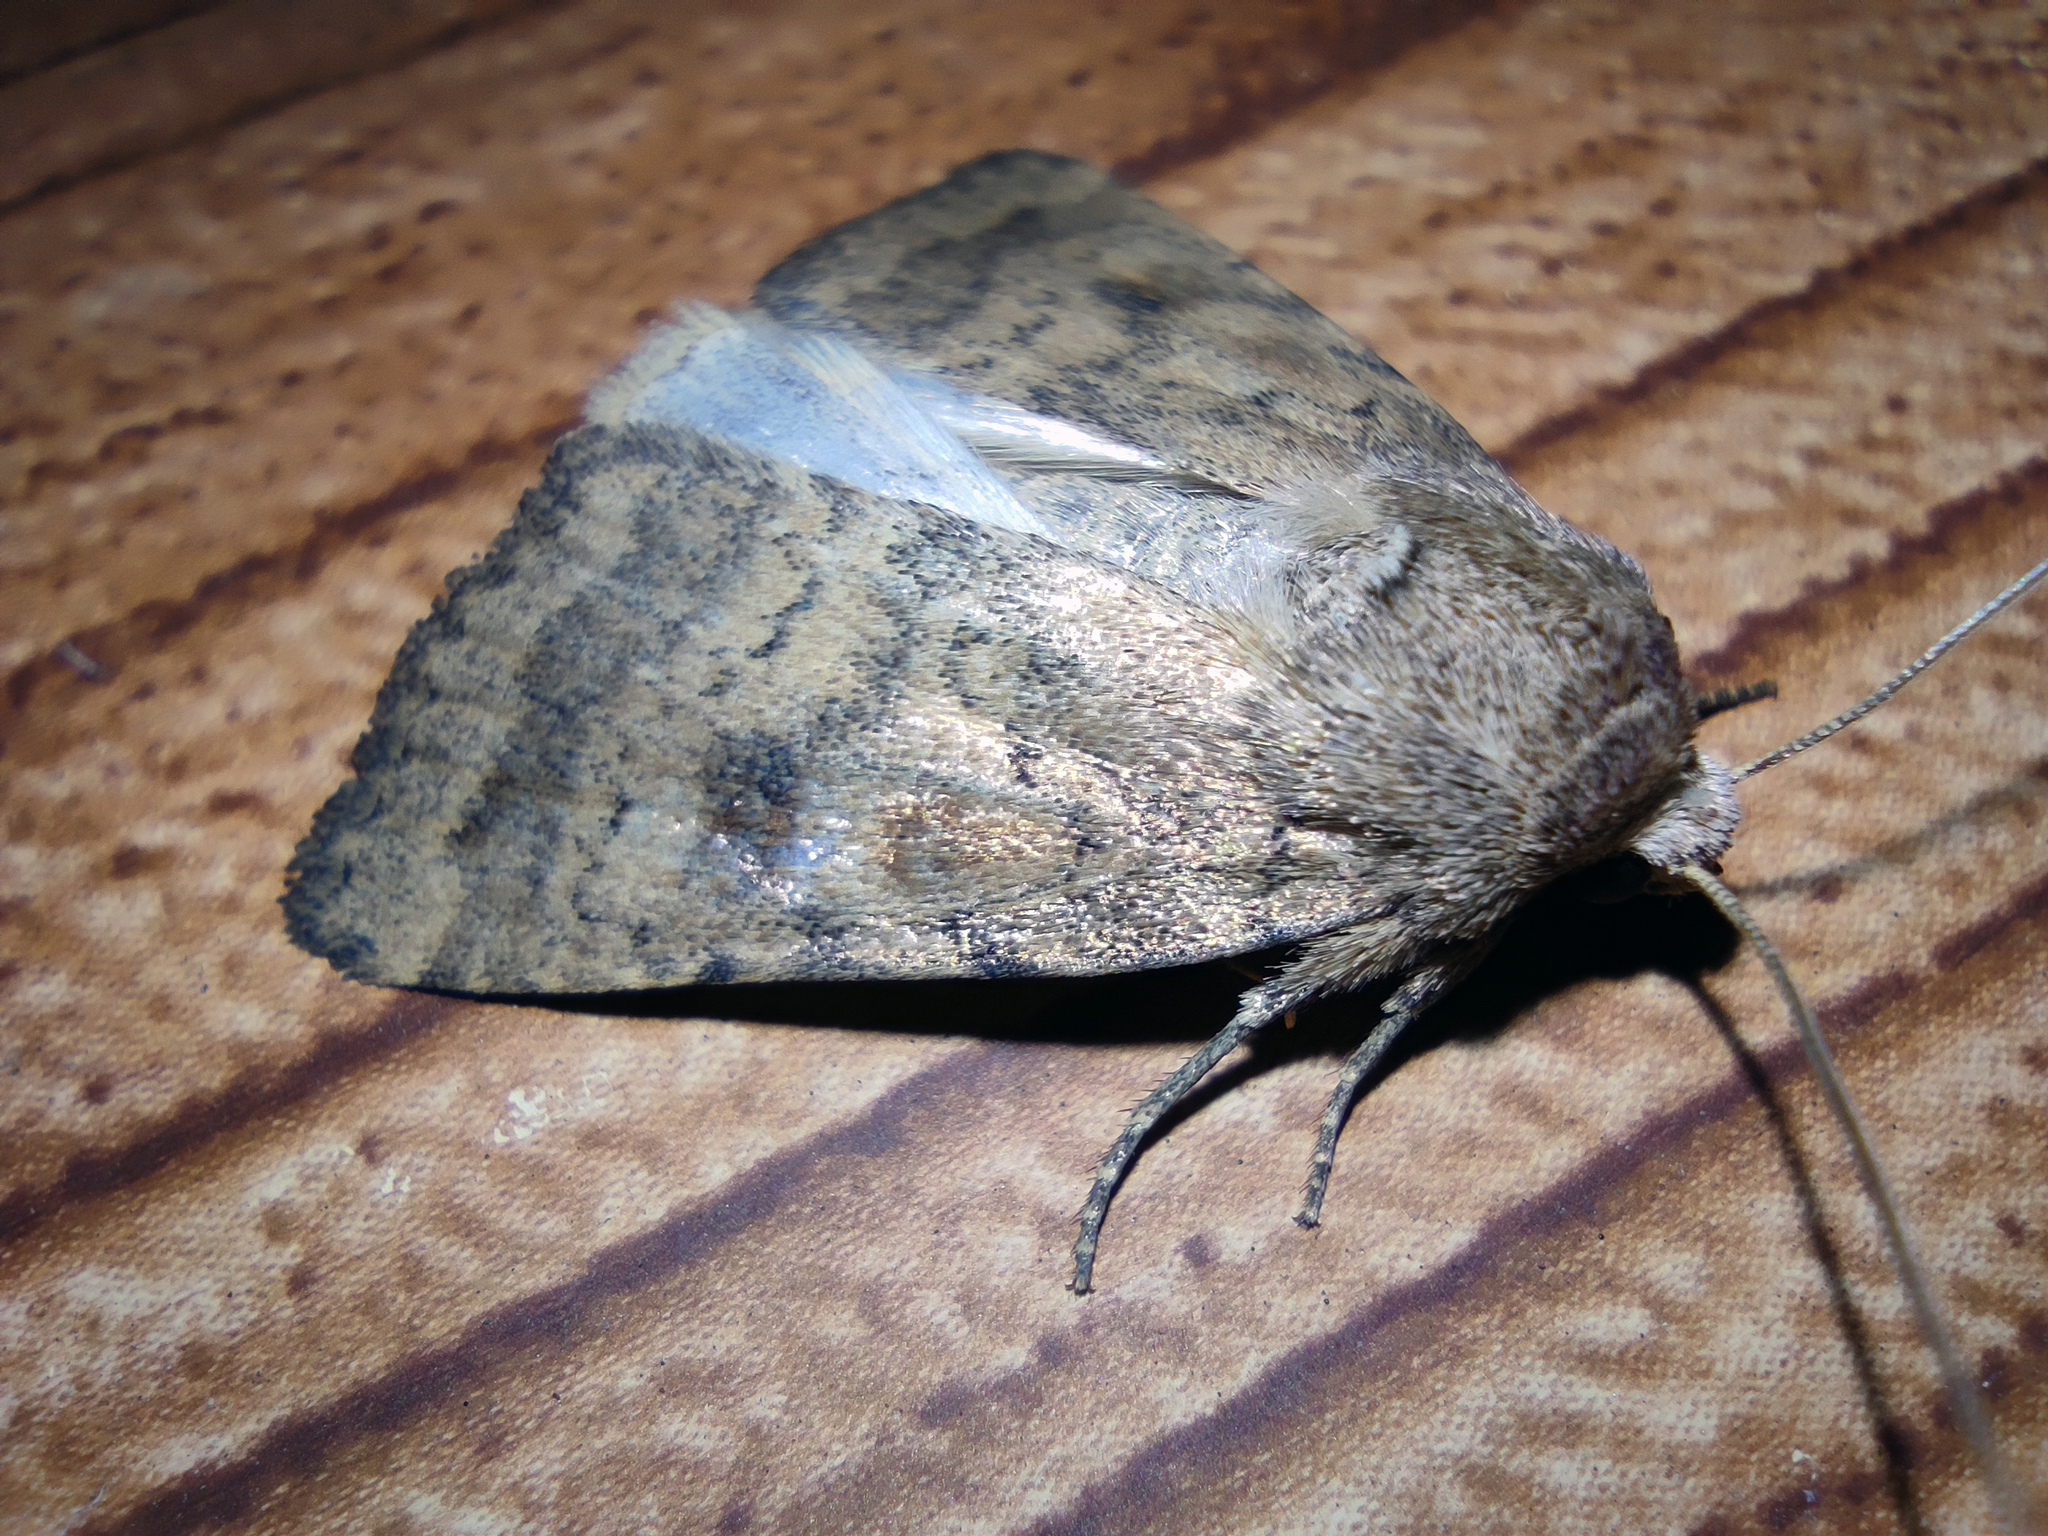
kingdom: Animalia
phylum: Arthropoda
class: Insecta
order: Lepidoptera
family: Noctuidae
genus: Caradrina
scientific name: Caradrina morpheus
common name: Mottled rustic
